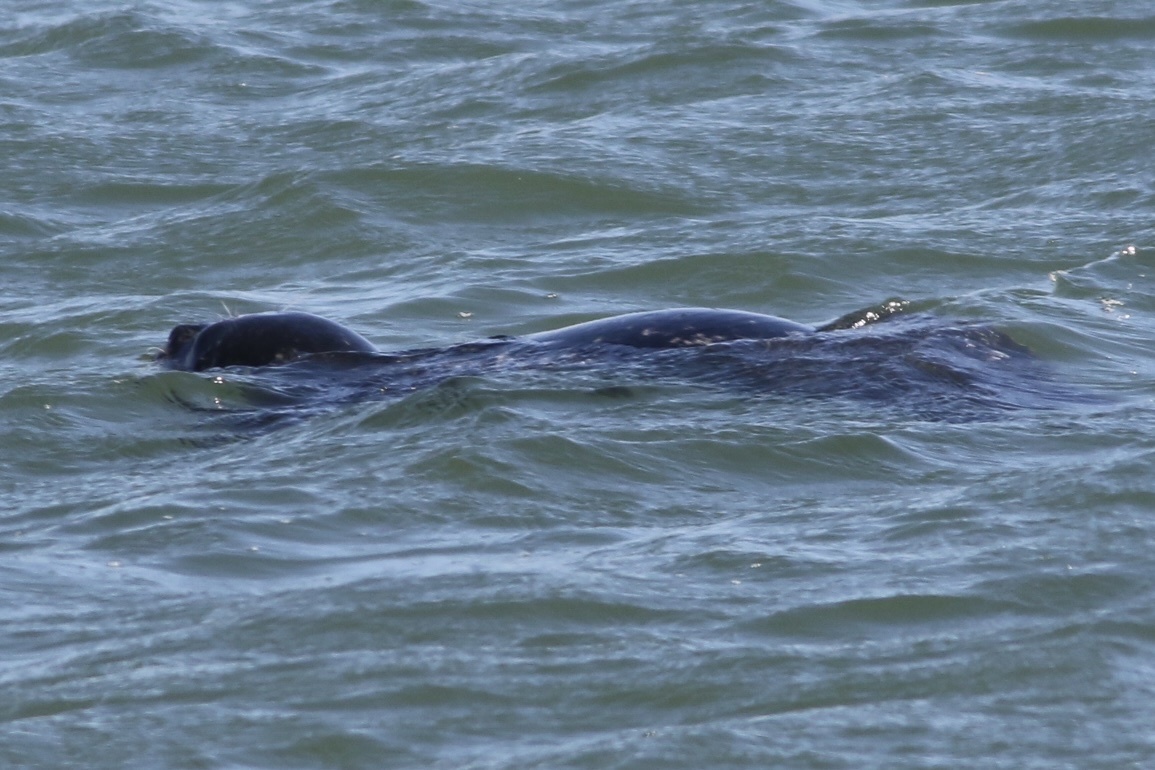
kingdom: Animalia
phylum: Chordata
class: Mammalia
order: Carnivora
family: Phocidae
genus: Phoca
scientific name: Phoca vitulina
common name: Harbor seal
